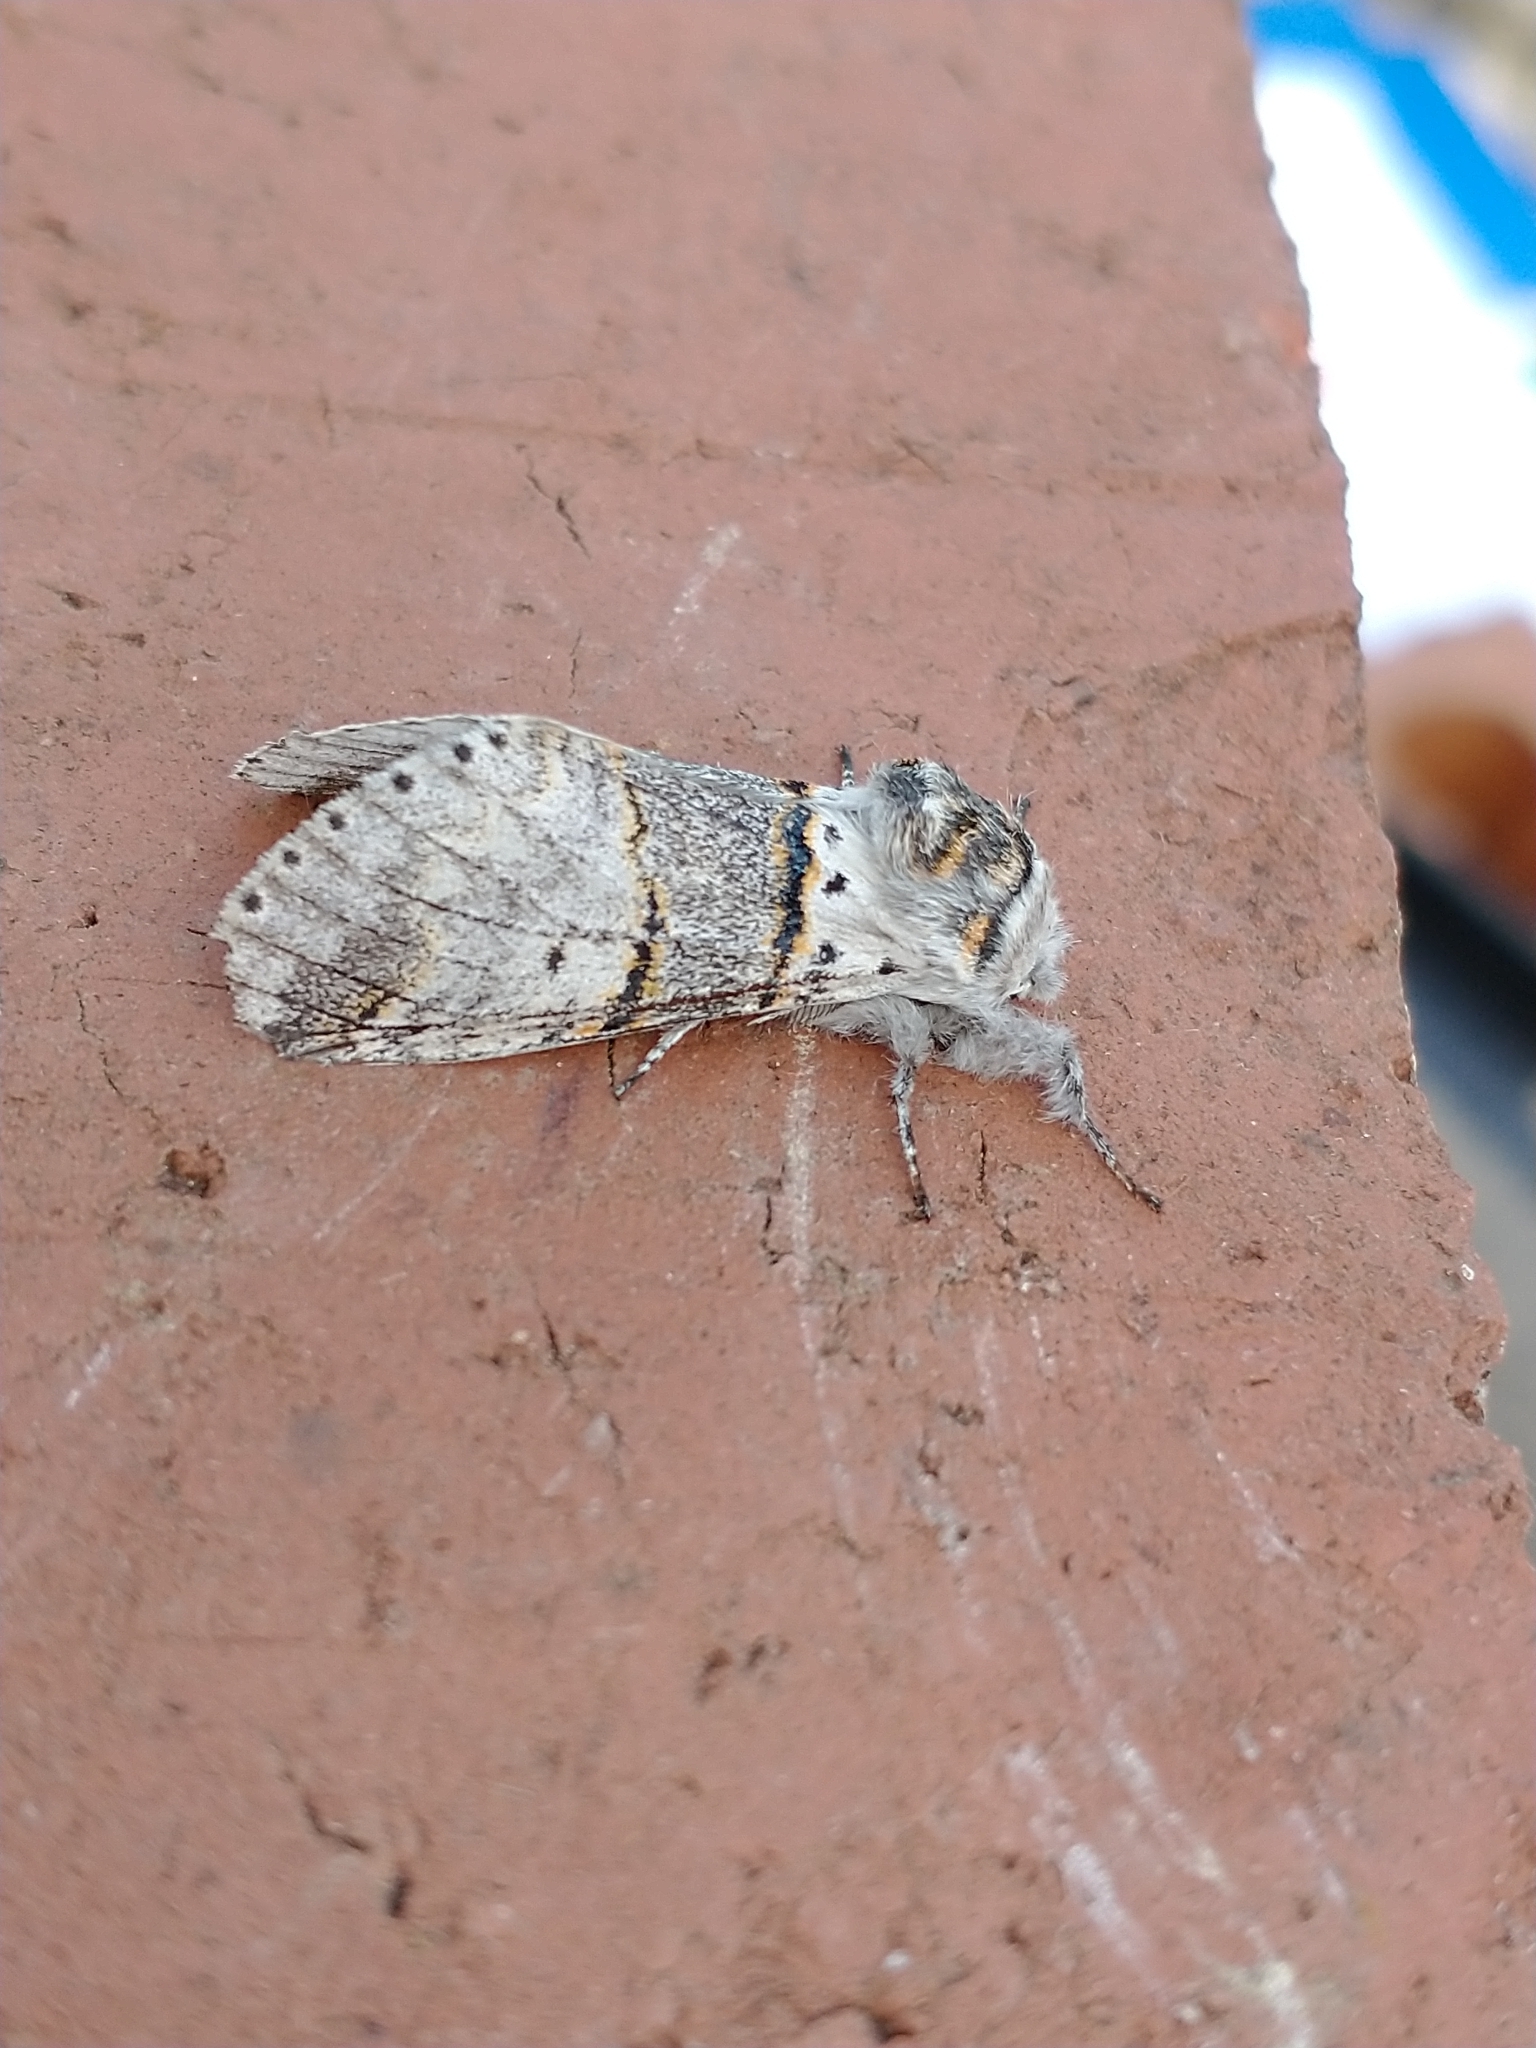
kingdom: Animalia
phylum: Arthropoda
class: Insecta
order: Lepidoptera
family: Notodontidae
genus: Furcula
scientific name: Furcula bifida
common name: Poplar kitten
